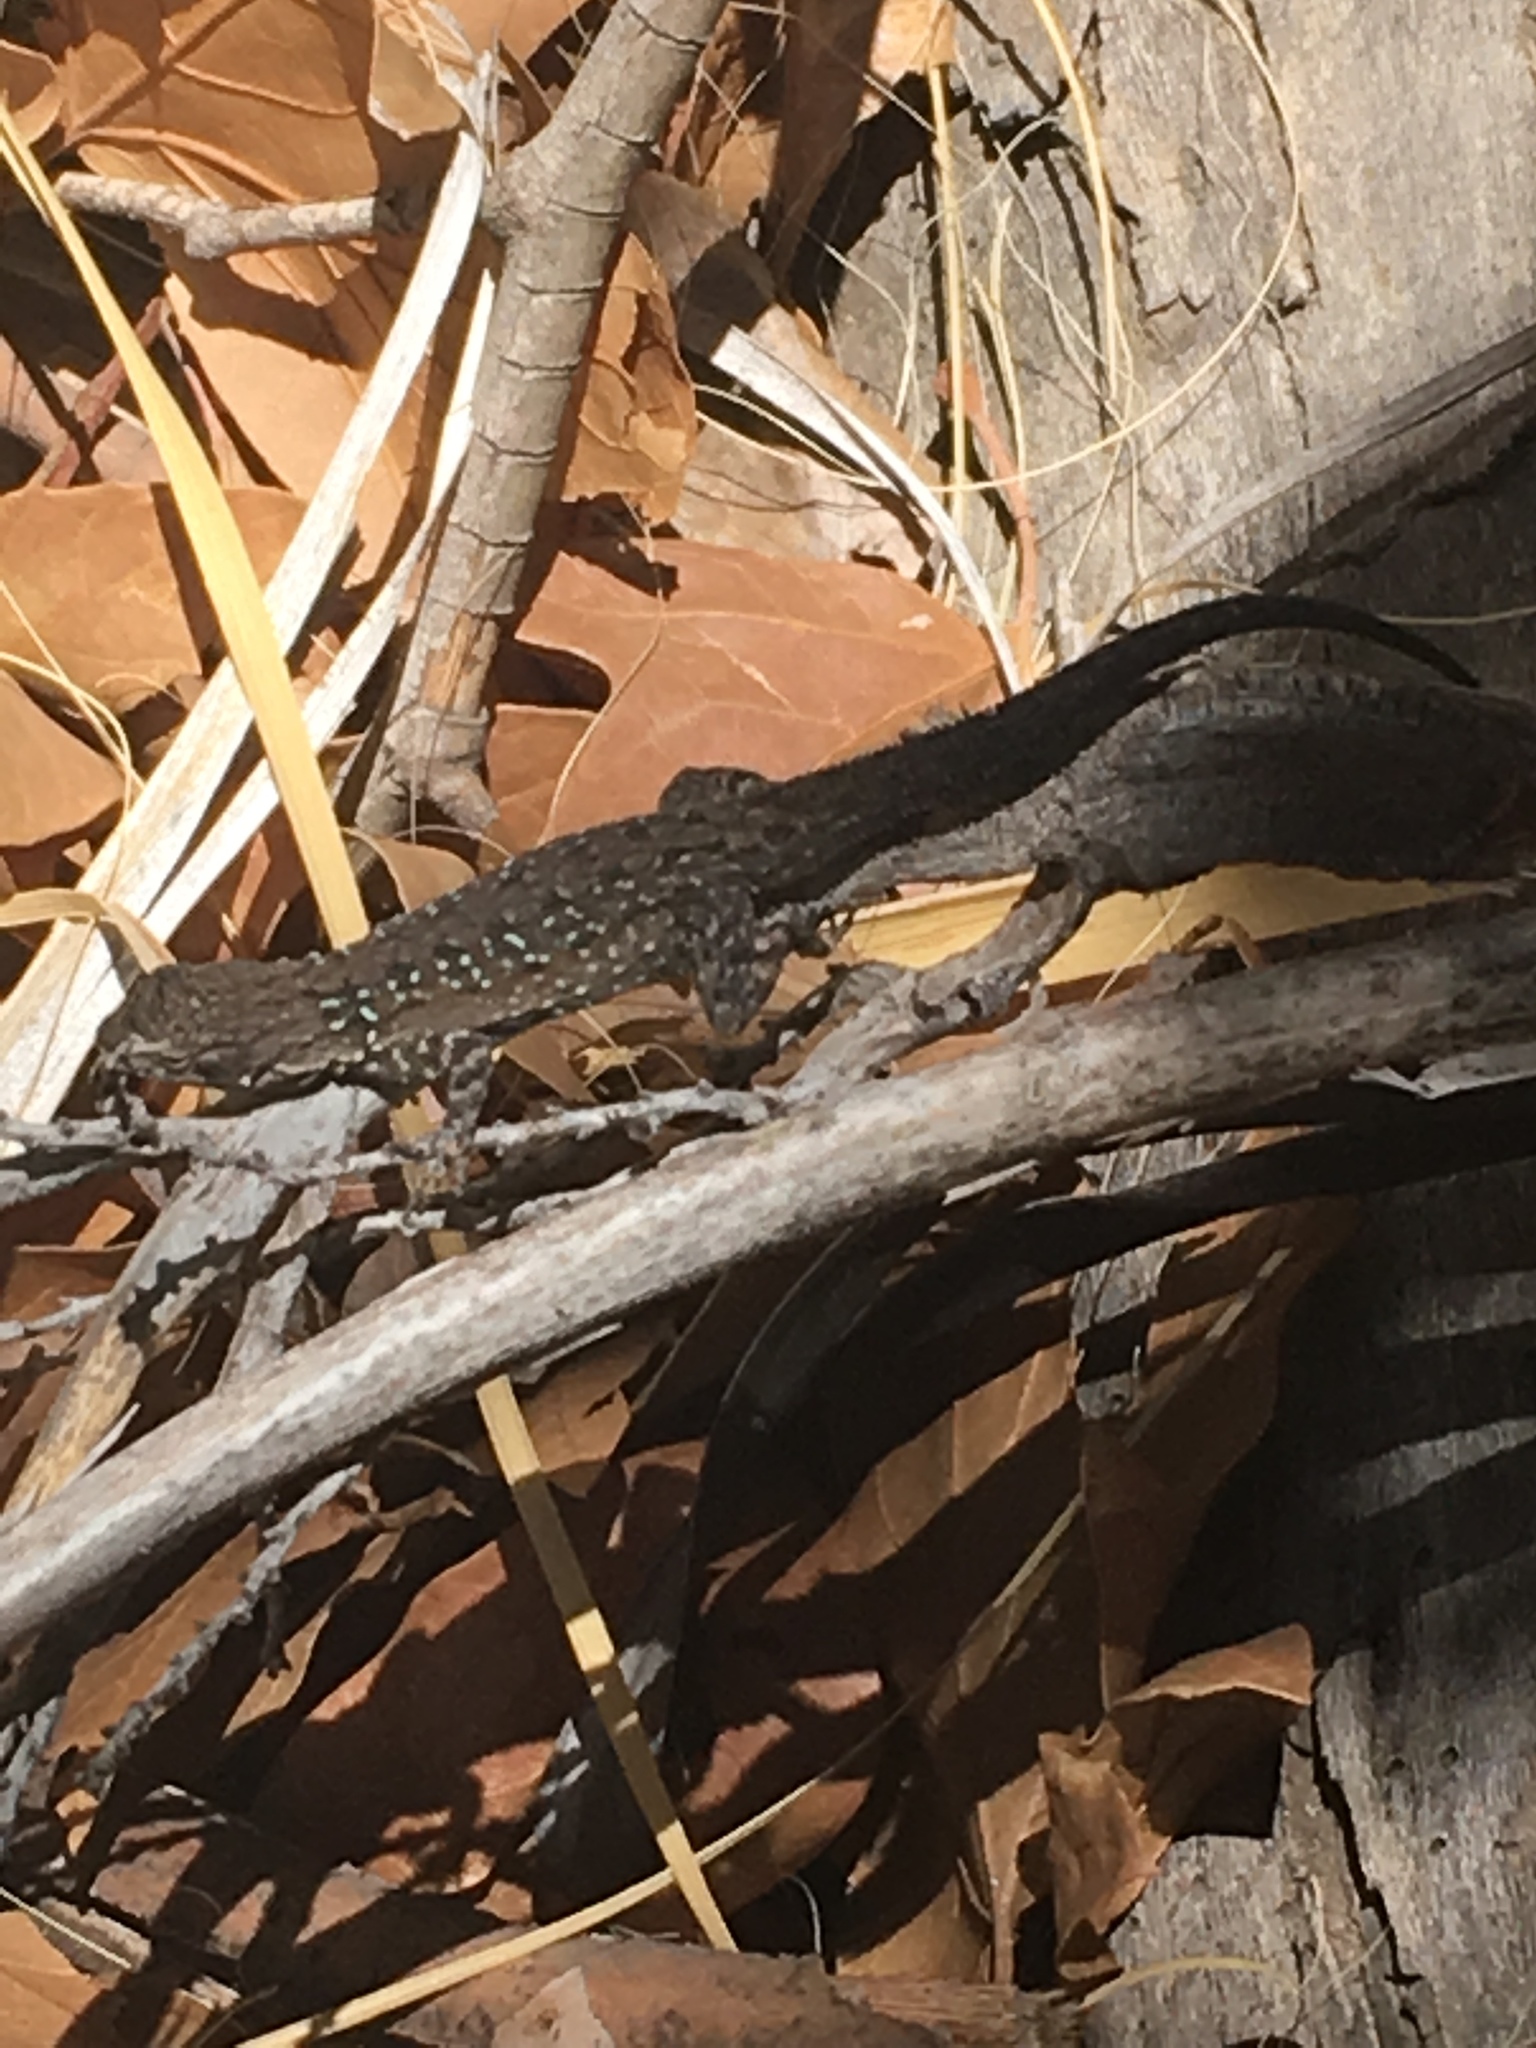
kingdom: Animalia
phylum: Chordata
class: Squamata
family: Phrynosomatidae
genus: Urosaurus
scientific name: Urosaurus nigricauda
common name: Baja california brush lizard
